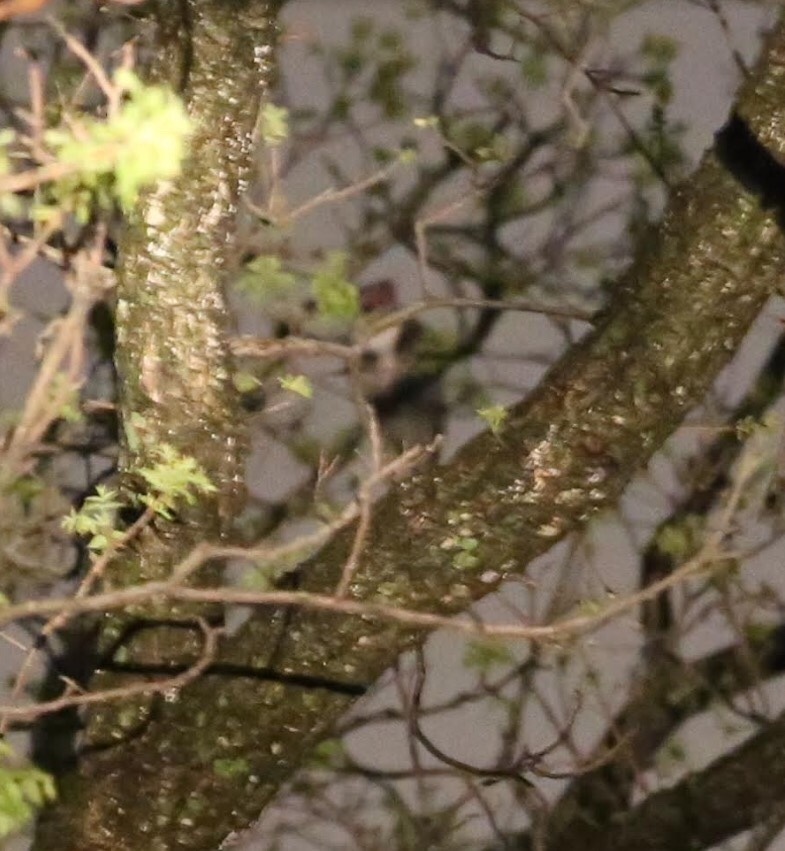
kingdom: Animalia
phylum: Chordata
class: Aves
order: Strigiformes
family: Strigidae
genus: Bubo
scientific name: Bubo virginianus
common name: Great horned owl
